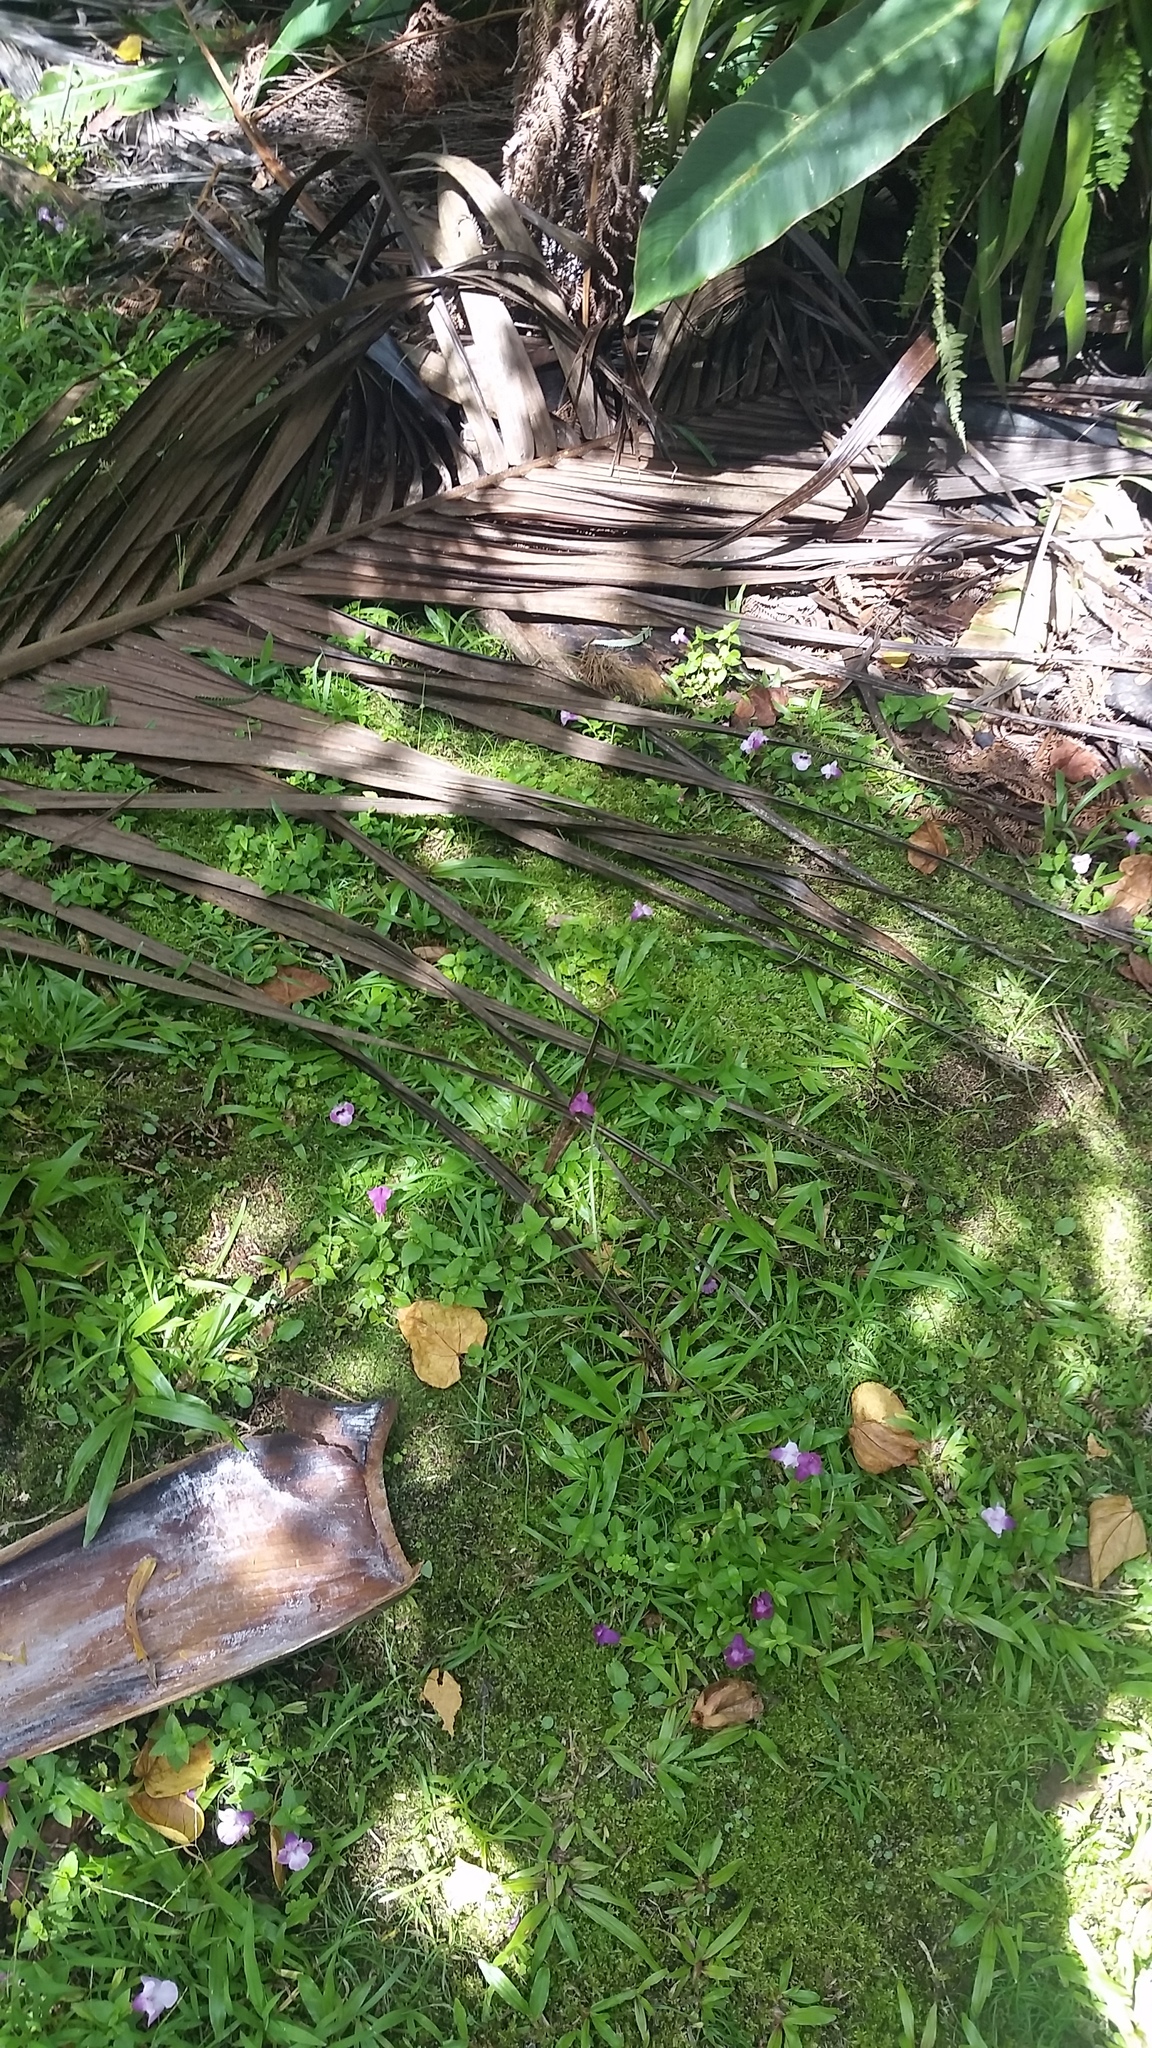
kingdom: Plantae
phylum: Tracheophyta
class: Magnoliopsida
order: Lamiales
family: Linderniaceae
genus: Torenia
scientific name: Torenia fournieri
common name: Bluewings
